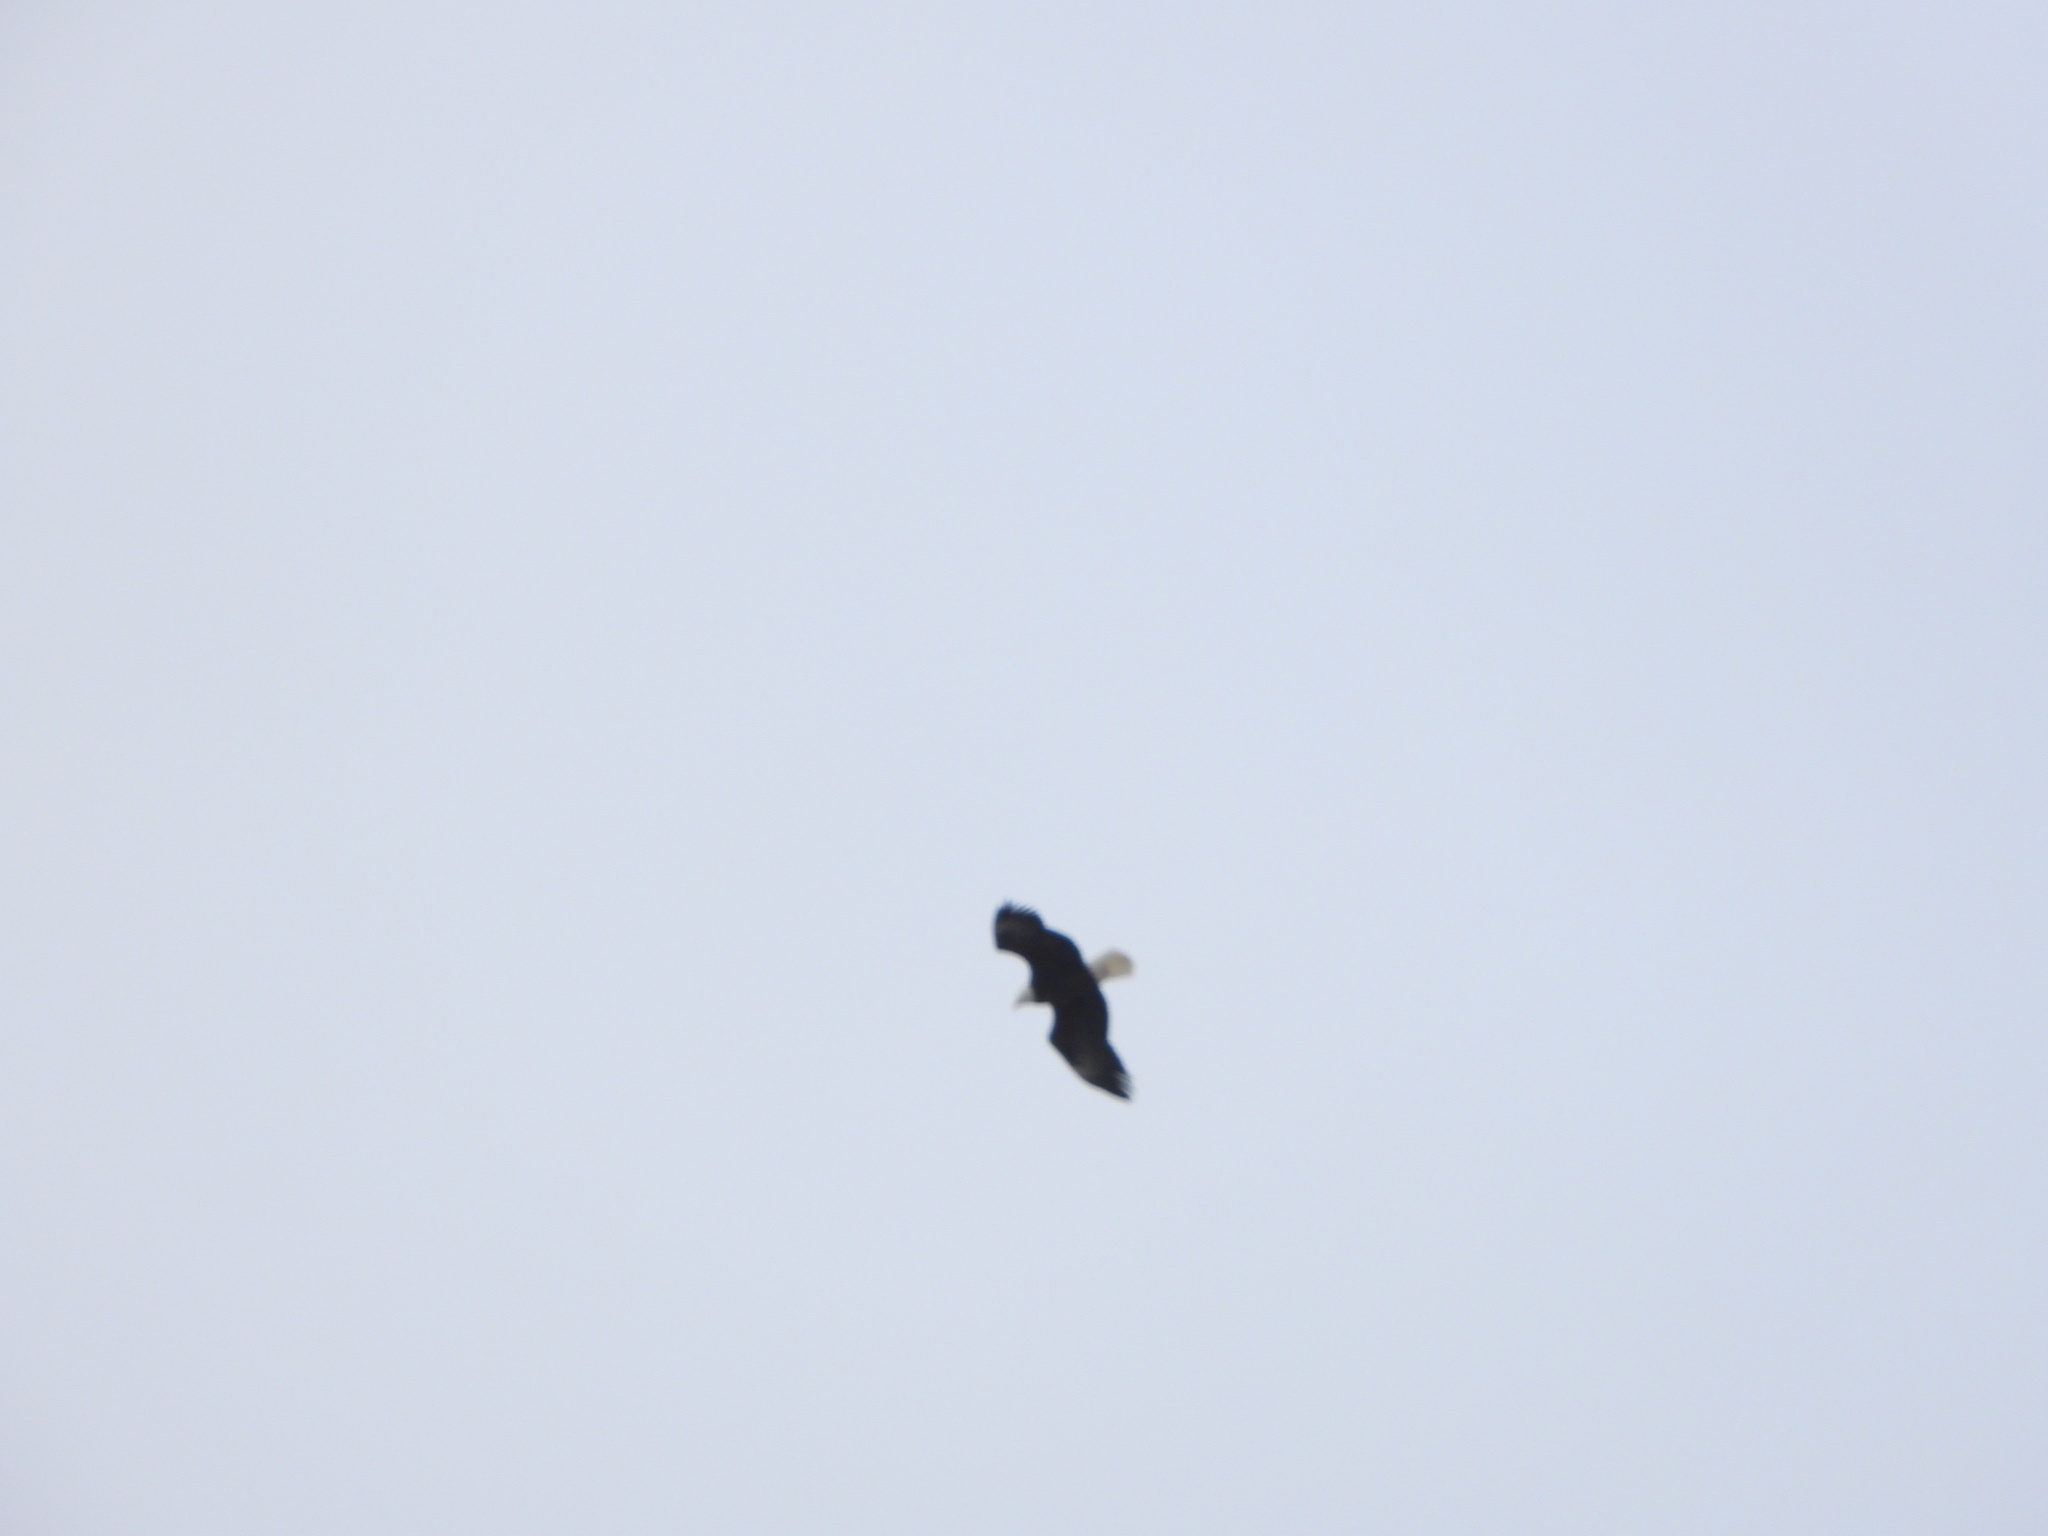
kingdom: Animalia
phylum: Chordata
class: Aves
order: Accipitriformes
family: Accipitridae
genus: Haliaeetus
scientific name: Haliaeetus leucocephalus
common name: Bald eagle
